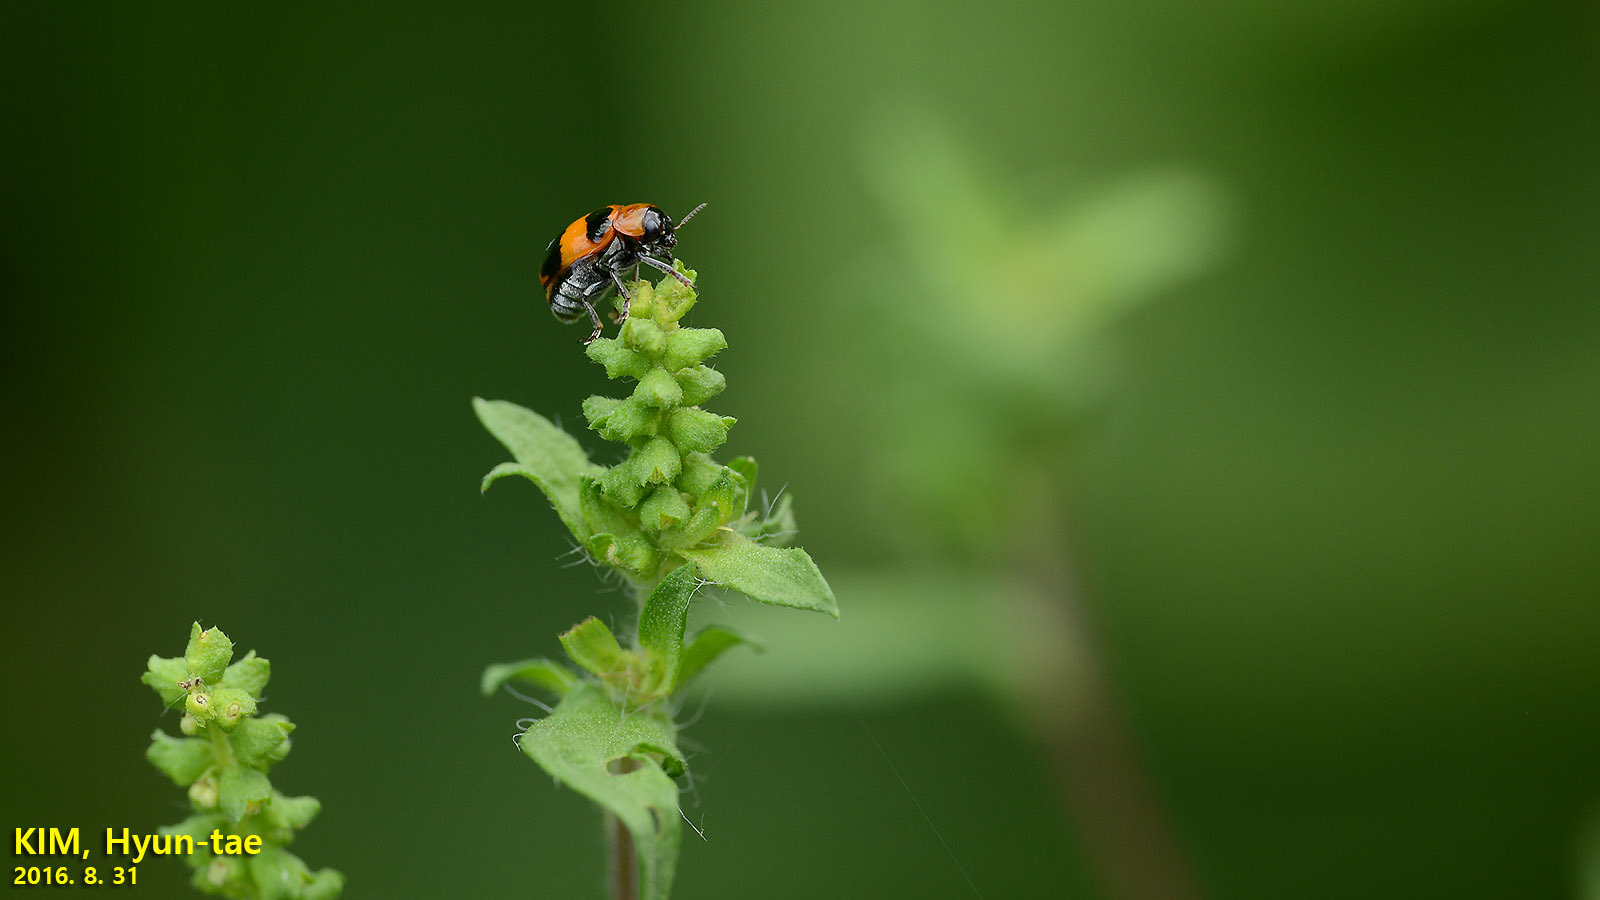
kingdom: Animalia
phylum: Arthropoda
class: Insecta
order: Coleoptera
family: Chrysomelidae
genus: Physosmaragdina
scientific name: Physosmaragdina nigrifrons
